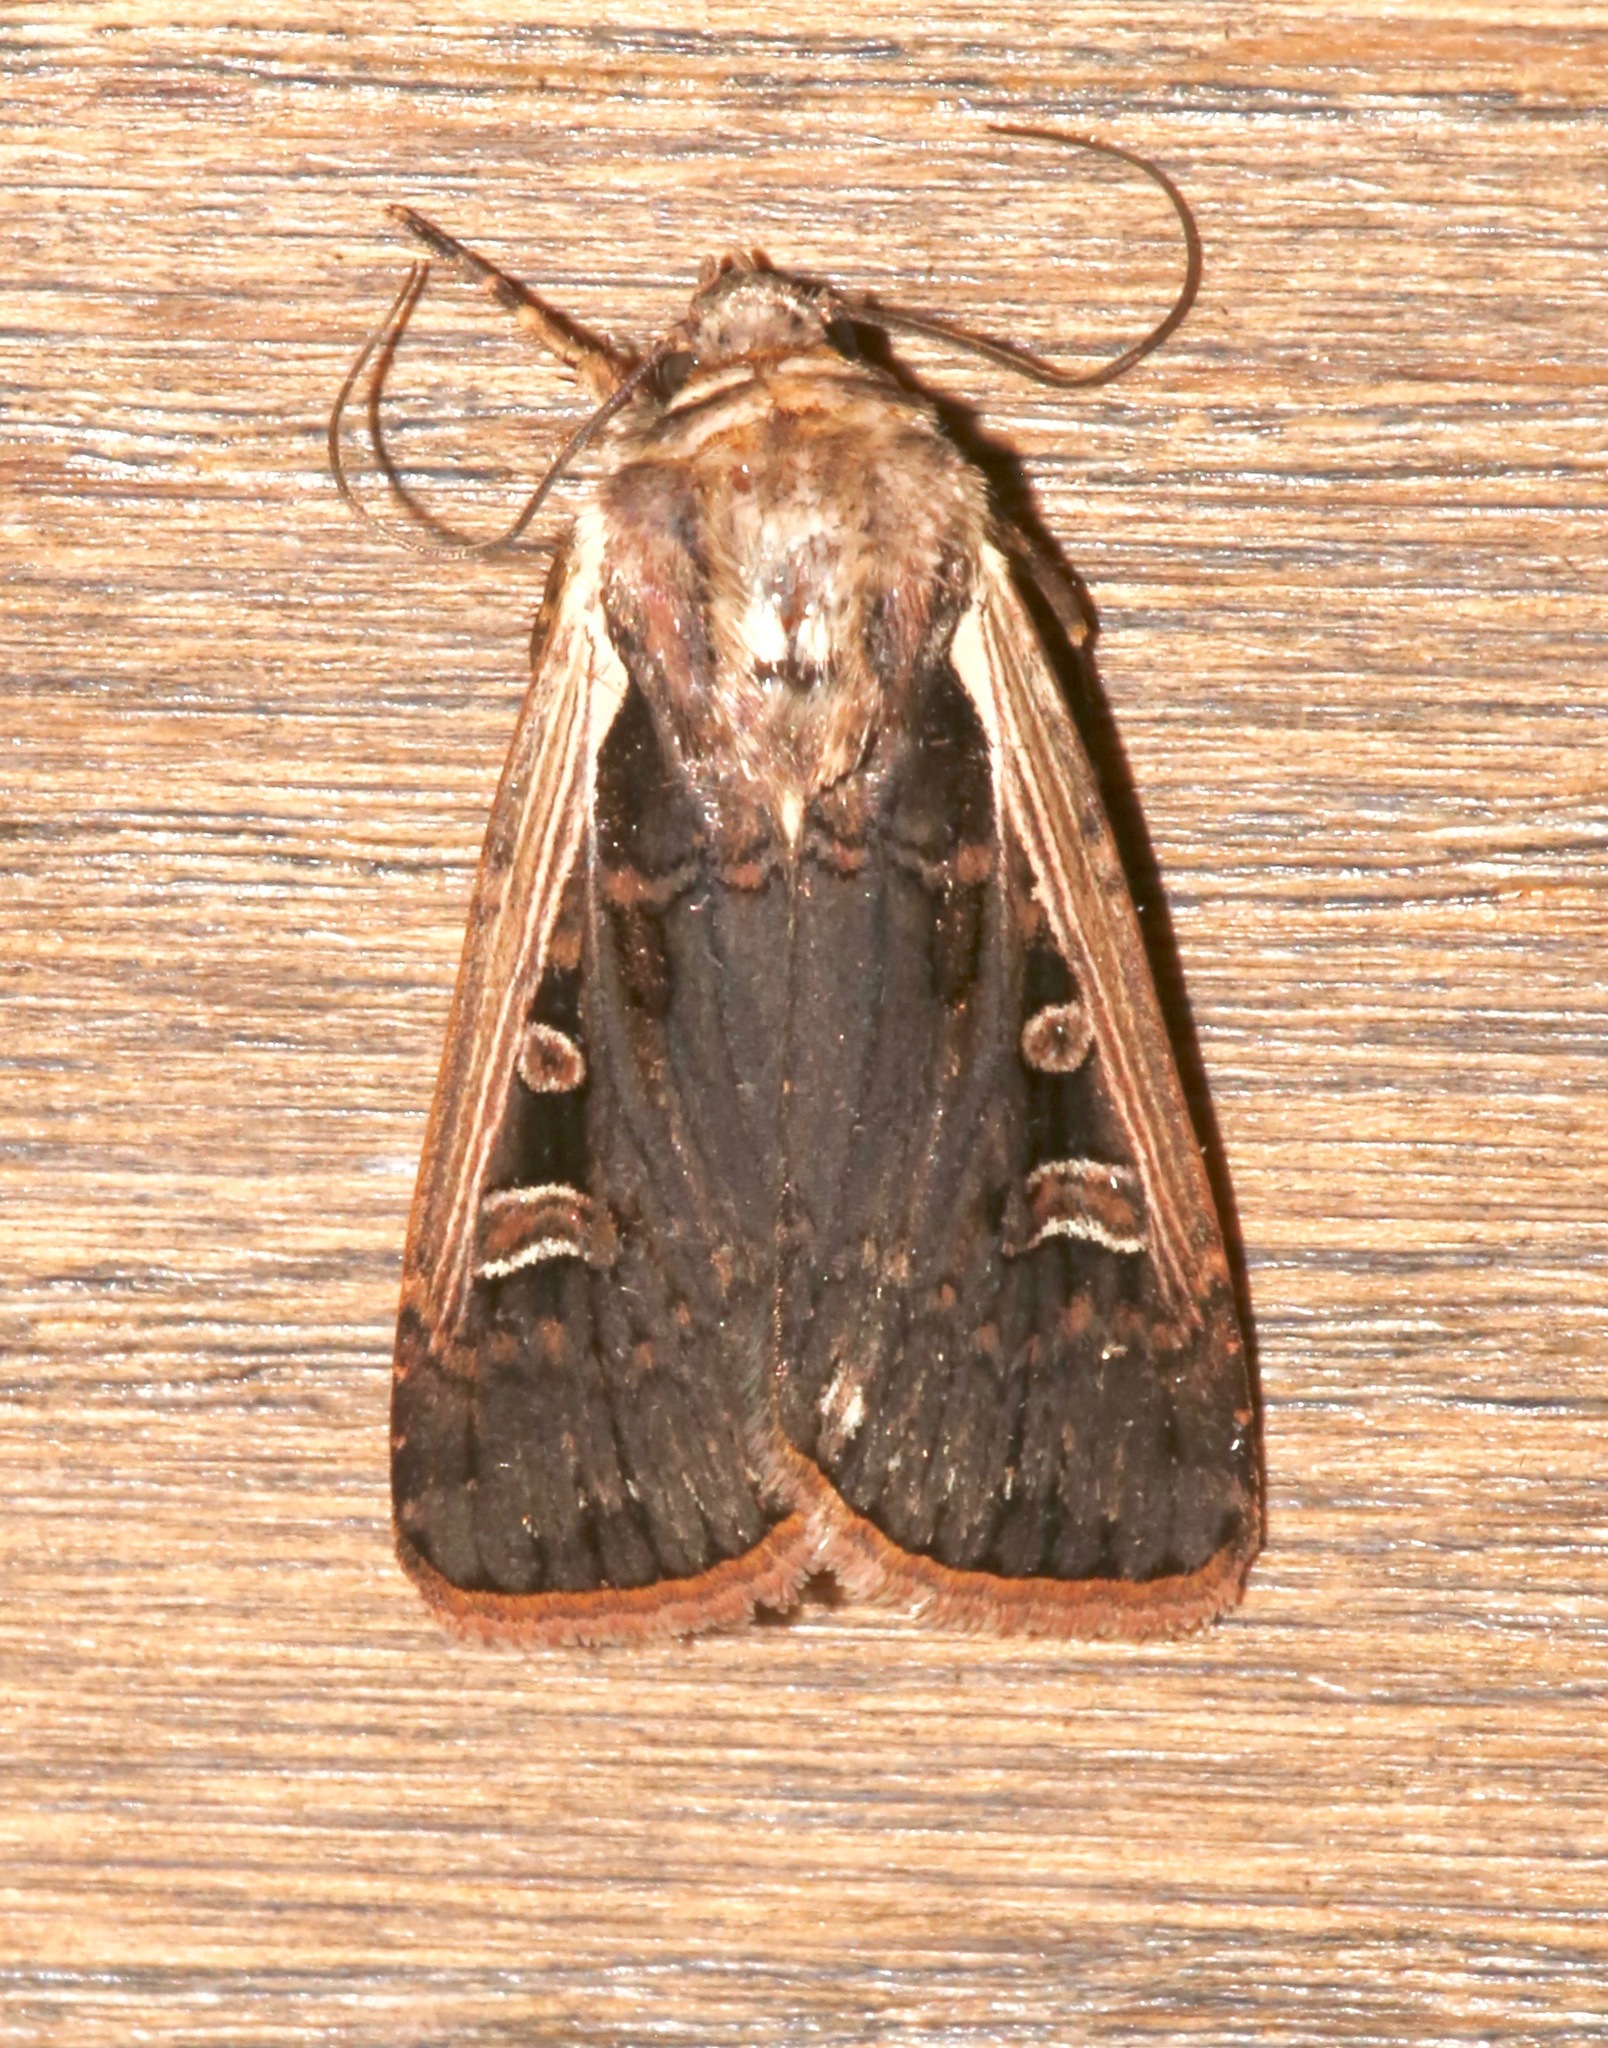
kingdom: Animalia
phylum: Arthropoda
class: Insecta
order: Lepidoptera
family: Noctuidae
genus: Striacosta
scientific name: Striacosta albicosta
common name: Western bean cutworm moth
